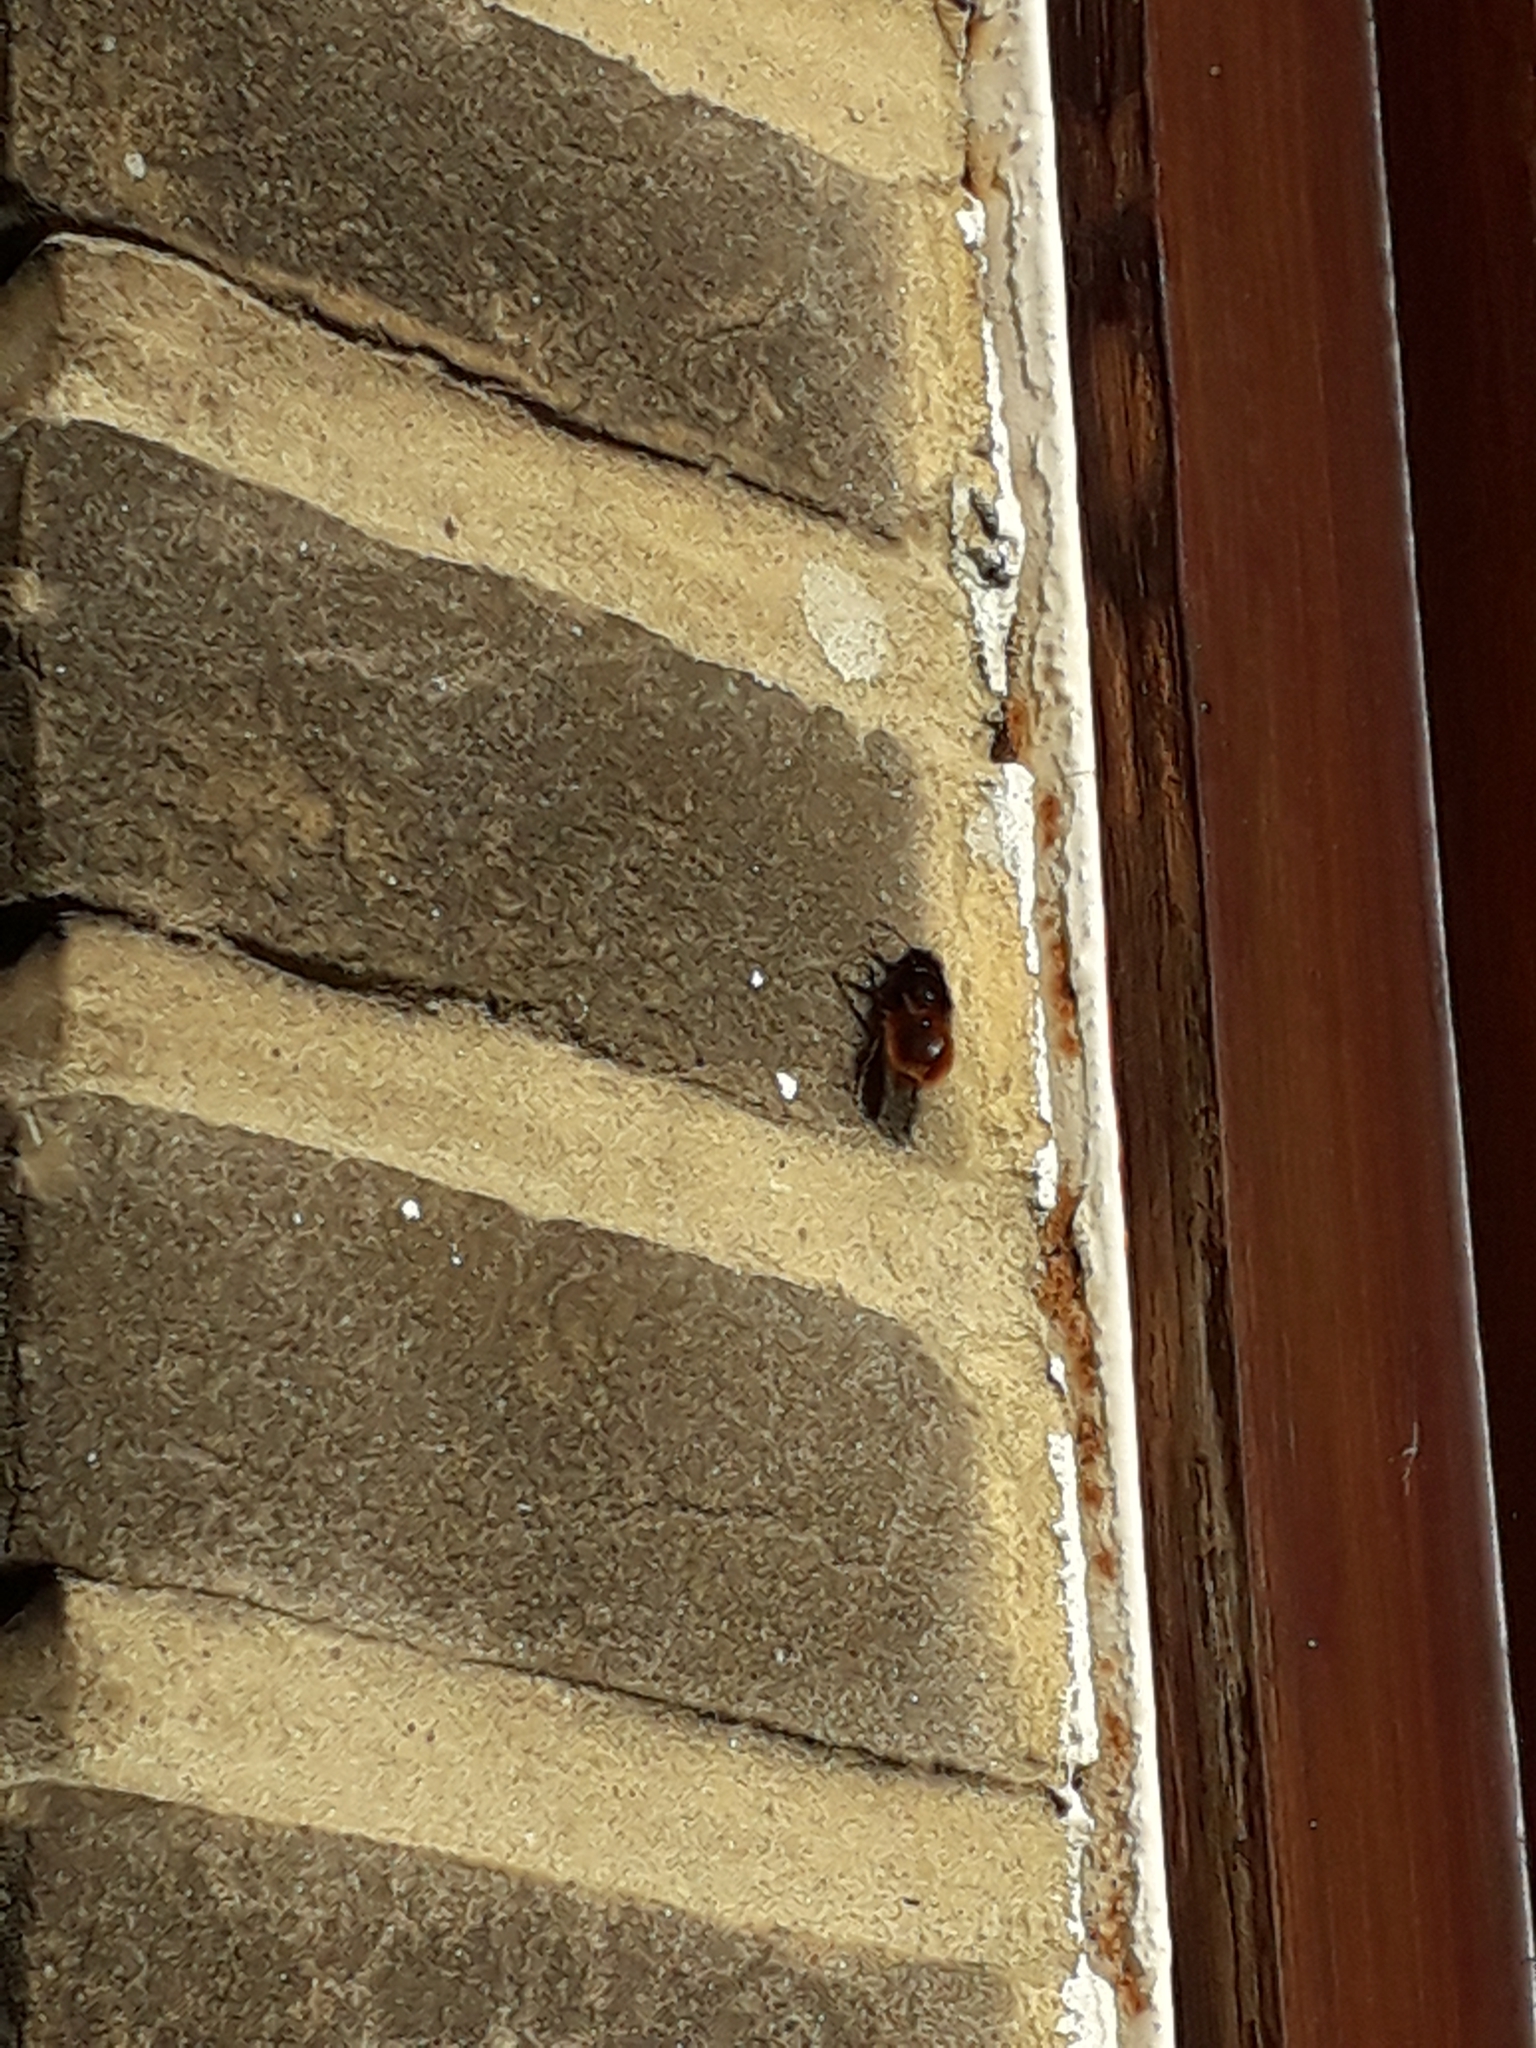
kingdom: Animalia
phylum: Arthropoda
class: Insecta
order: Hymenoptera
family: Megachilidae
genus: Osmia
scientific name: Osmia cornuta
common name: Mason bee
